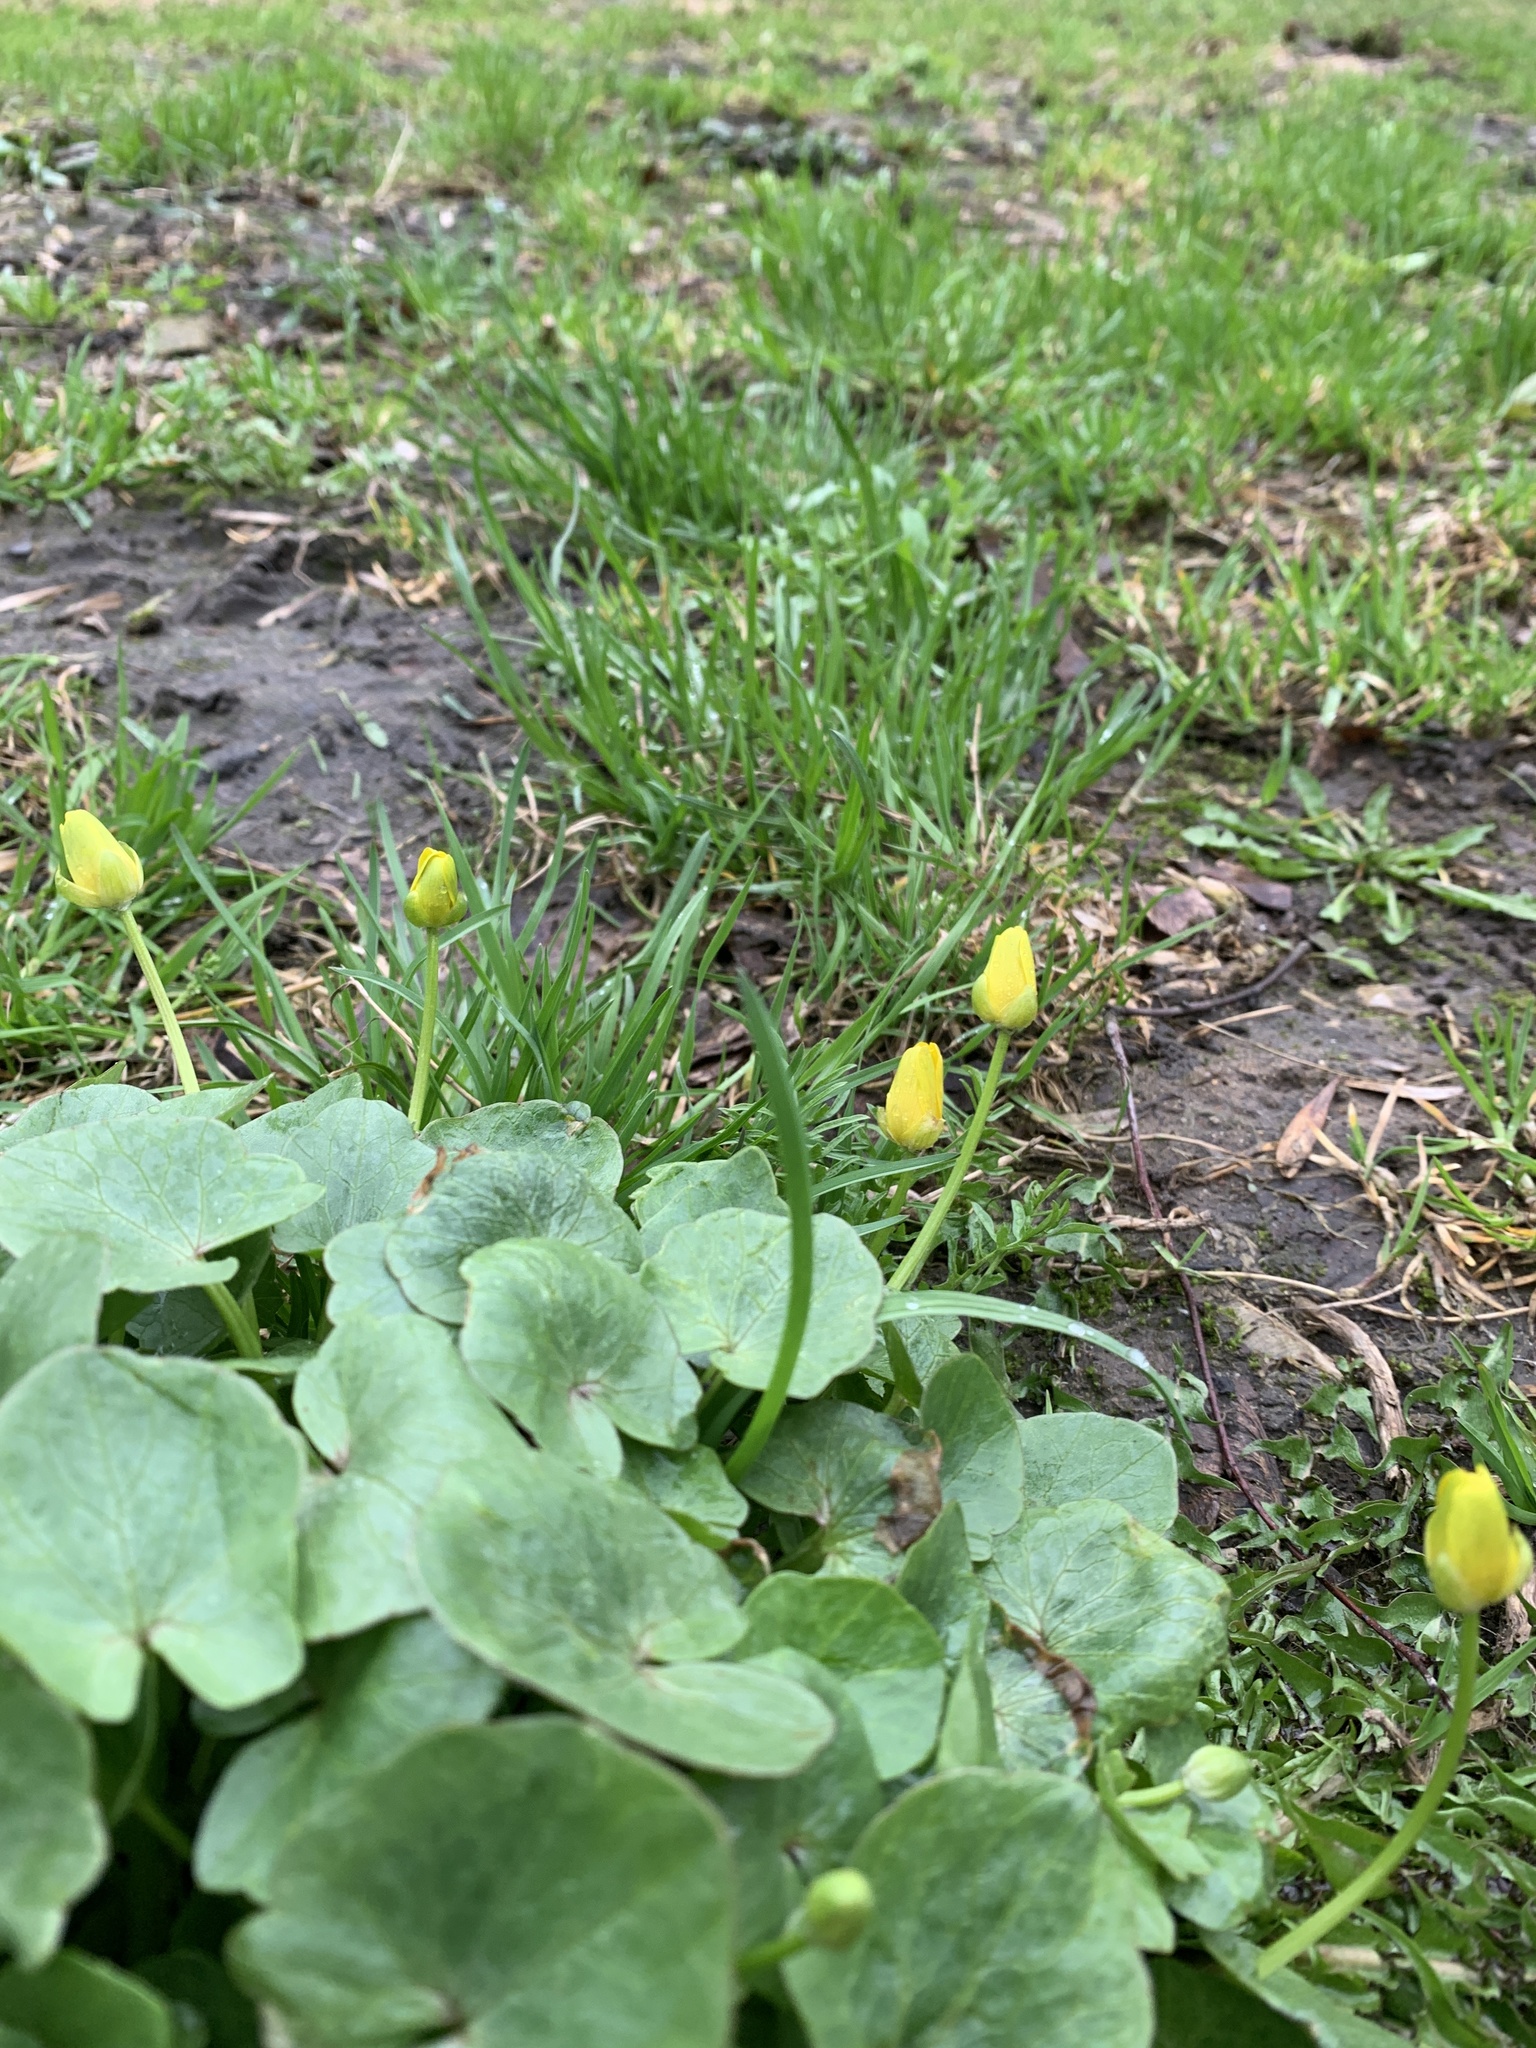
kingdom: Plantae
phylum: Tracheophyta
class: Magnoliopsida
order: Ranunculales
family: Ranunculaceae
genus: Ficaria
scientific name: Ficaria verna
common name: Lesser celandine
